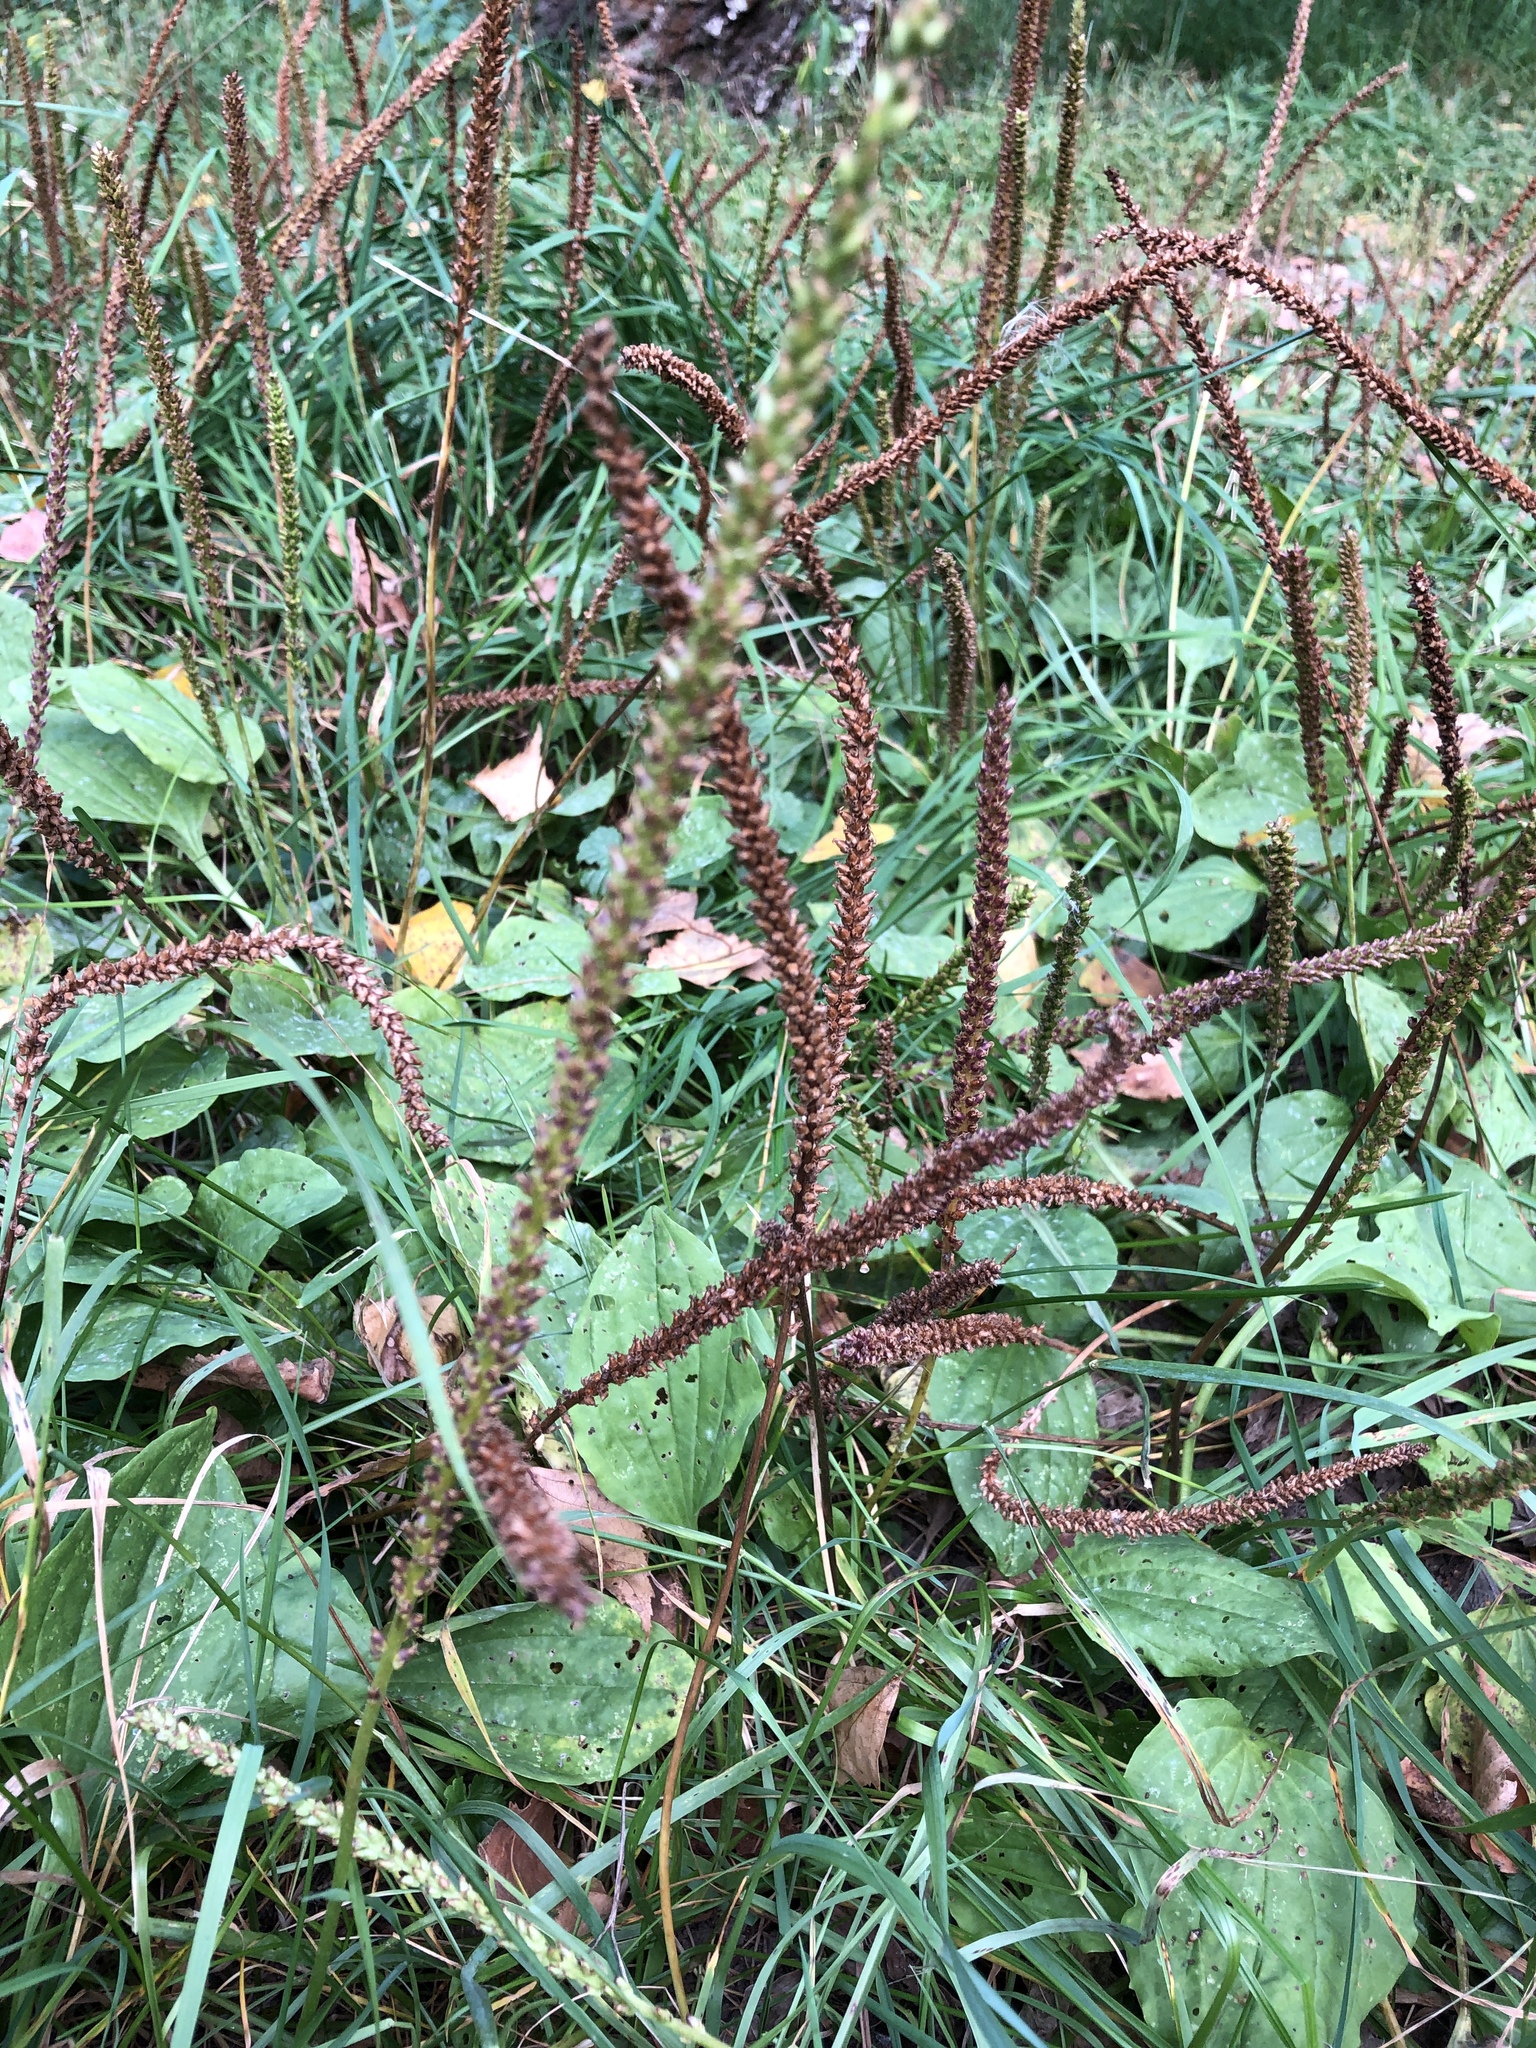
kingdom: Plantae
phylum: Tracheophyta
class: Magnoliopsida
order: Lamiales
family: Plantaginaceae
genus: Plantago
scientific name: Plantago major
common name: Common plantain
